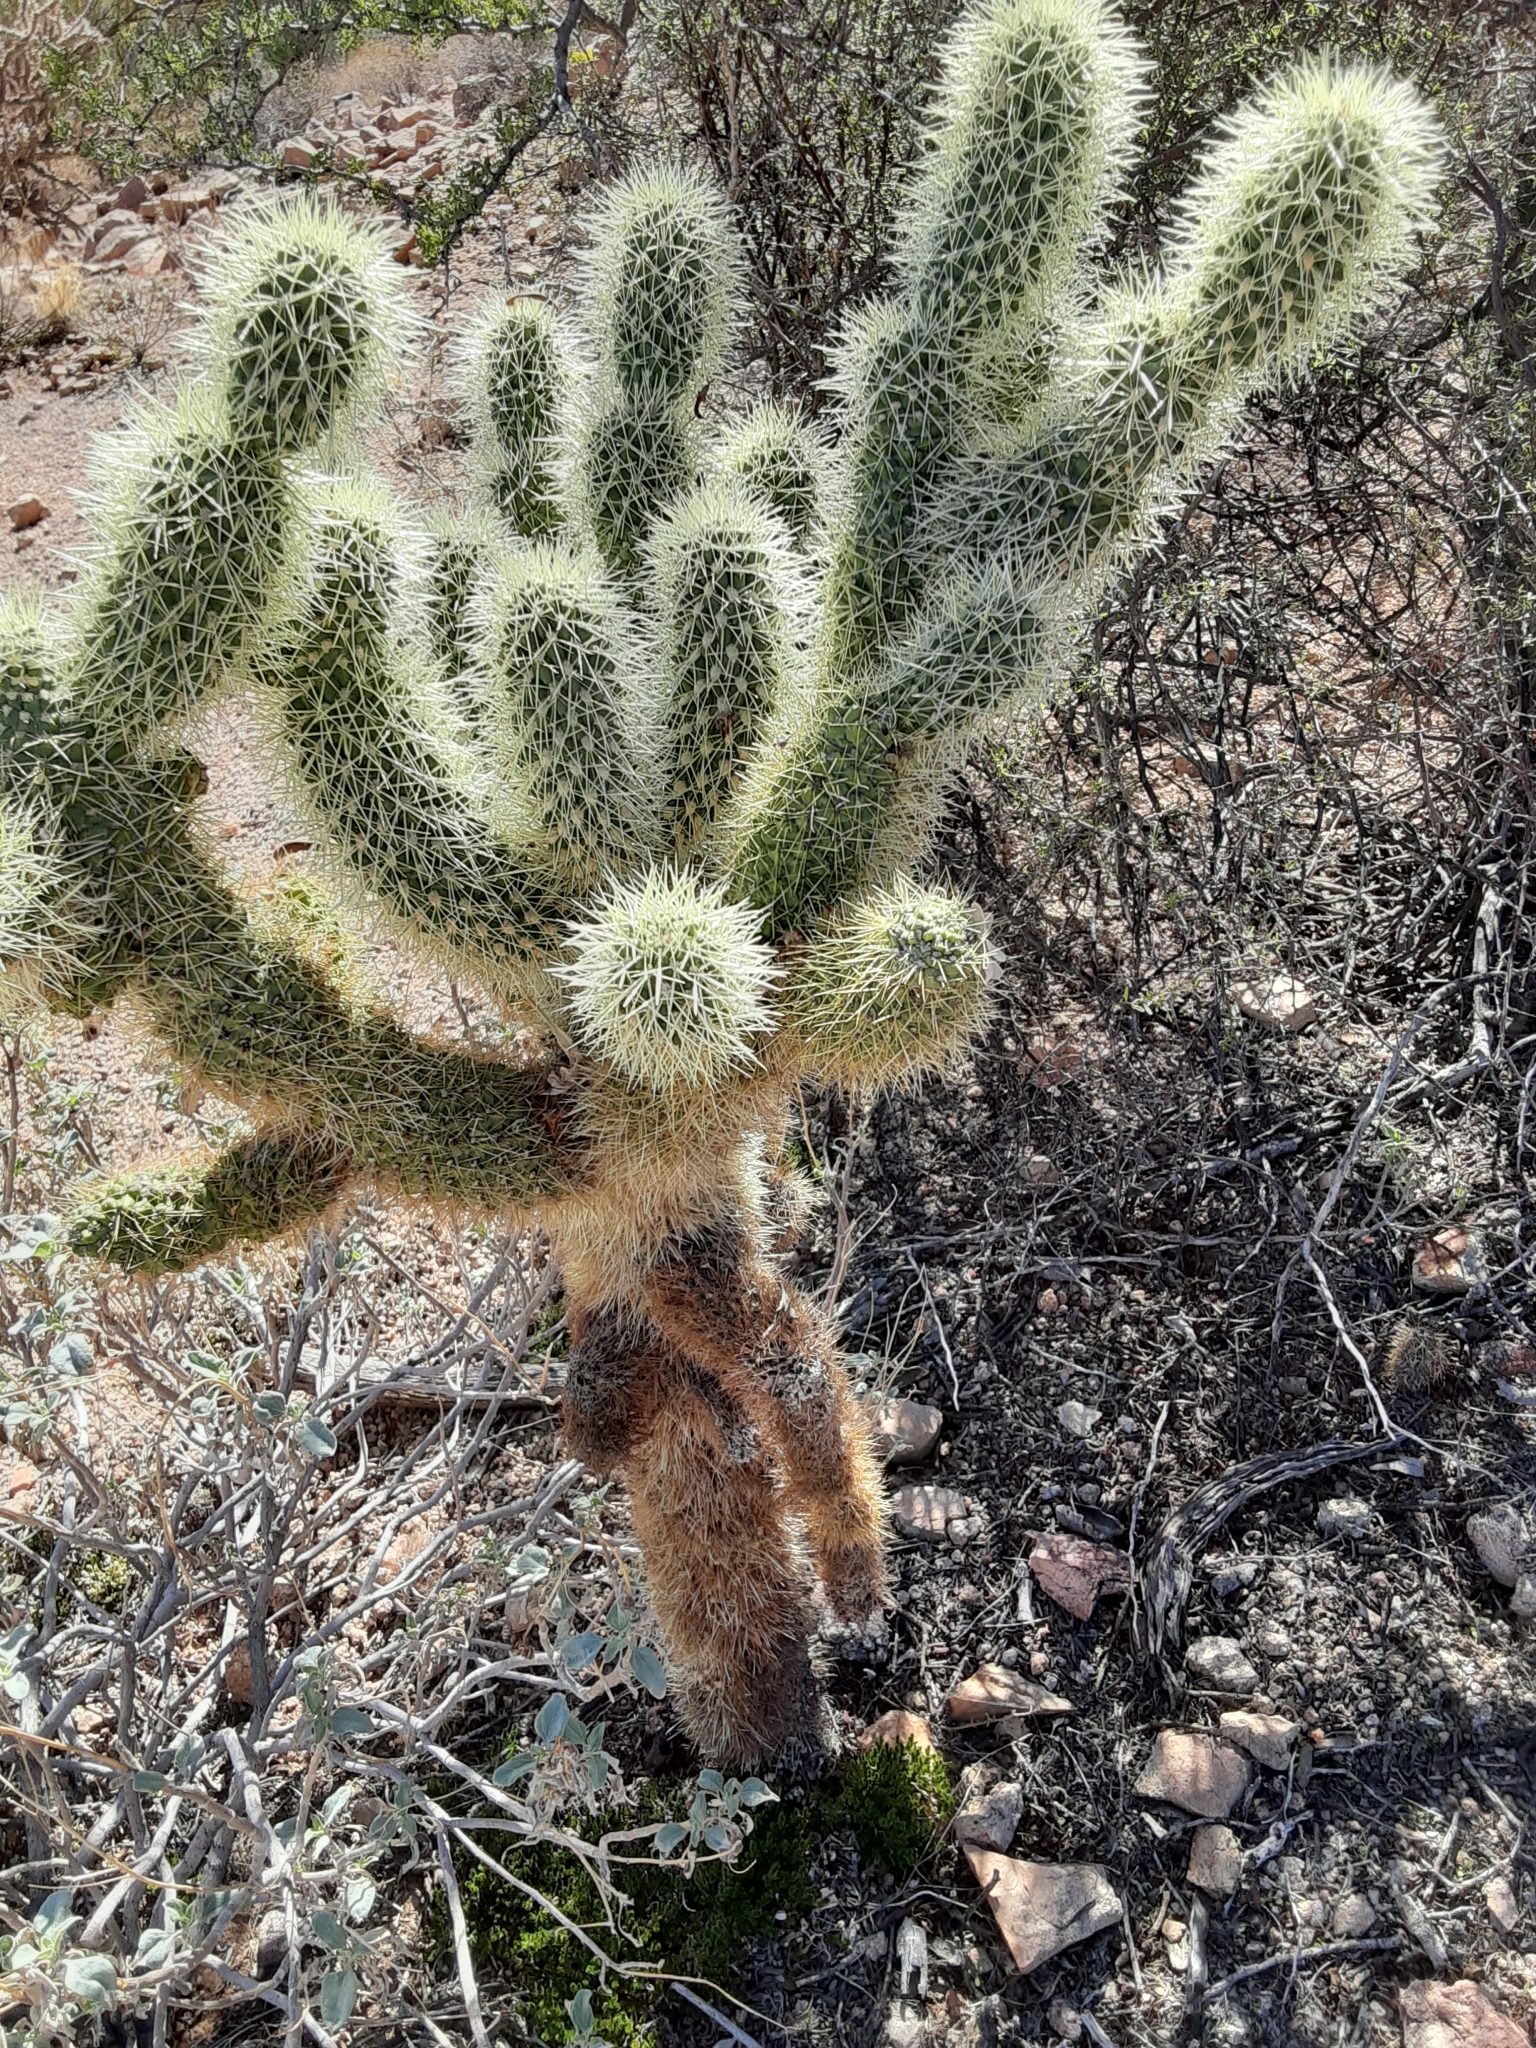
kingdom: Plantae
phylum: Tracheophyta
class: Magnoliopsida
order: Caryophyllales
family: Cactaceae
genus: Cylindropuntia
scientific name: Cylindropuntia fosbergii
